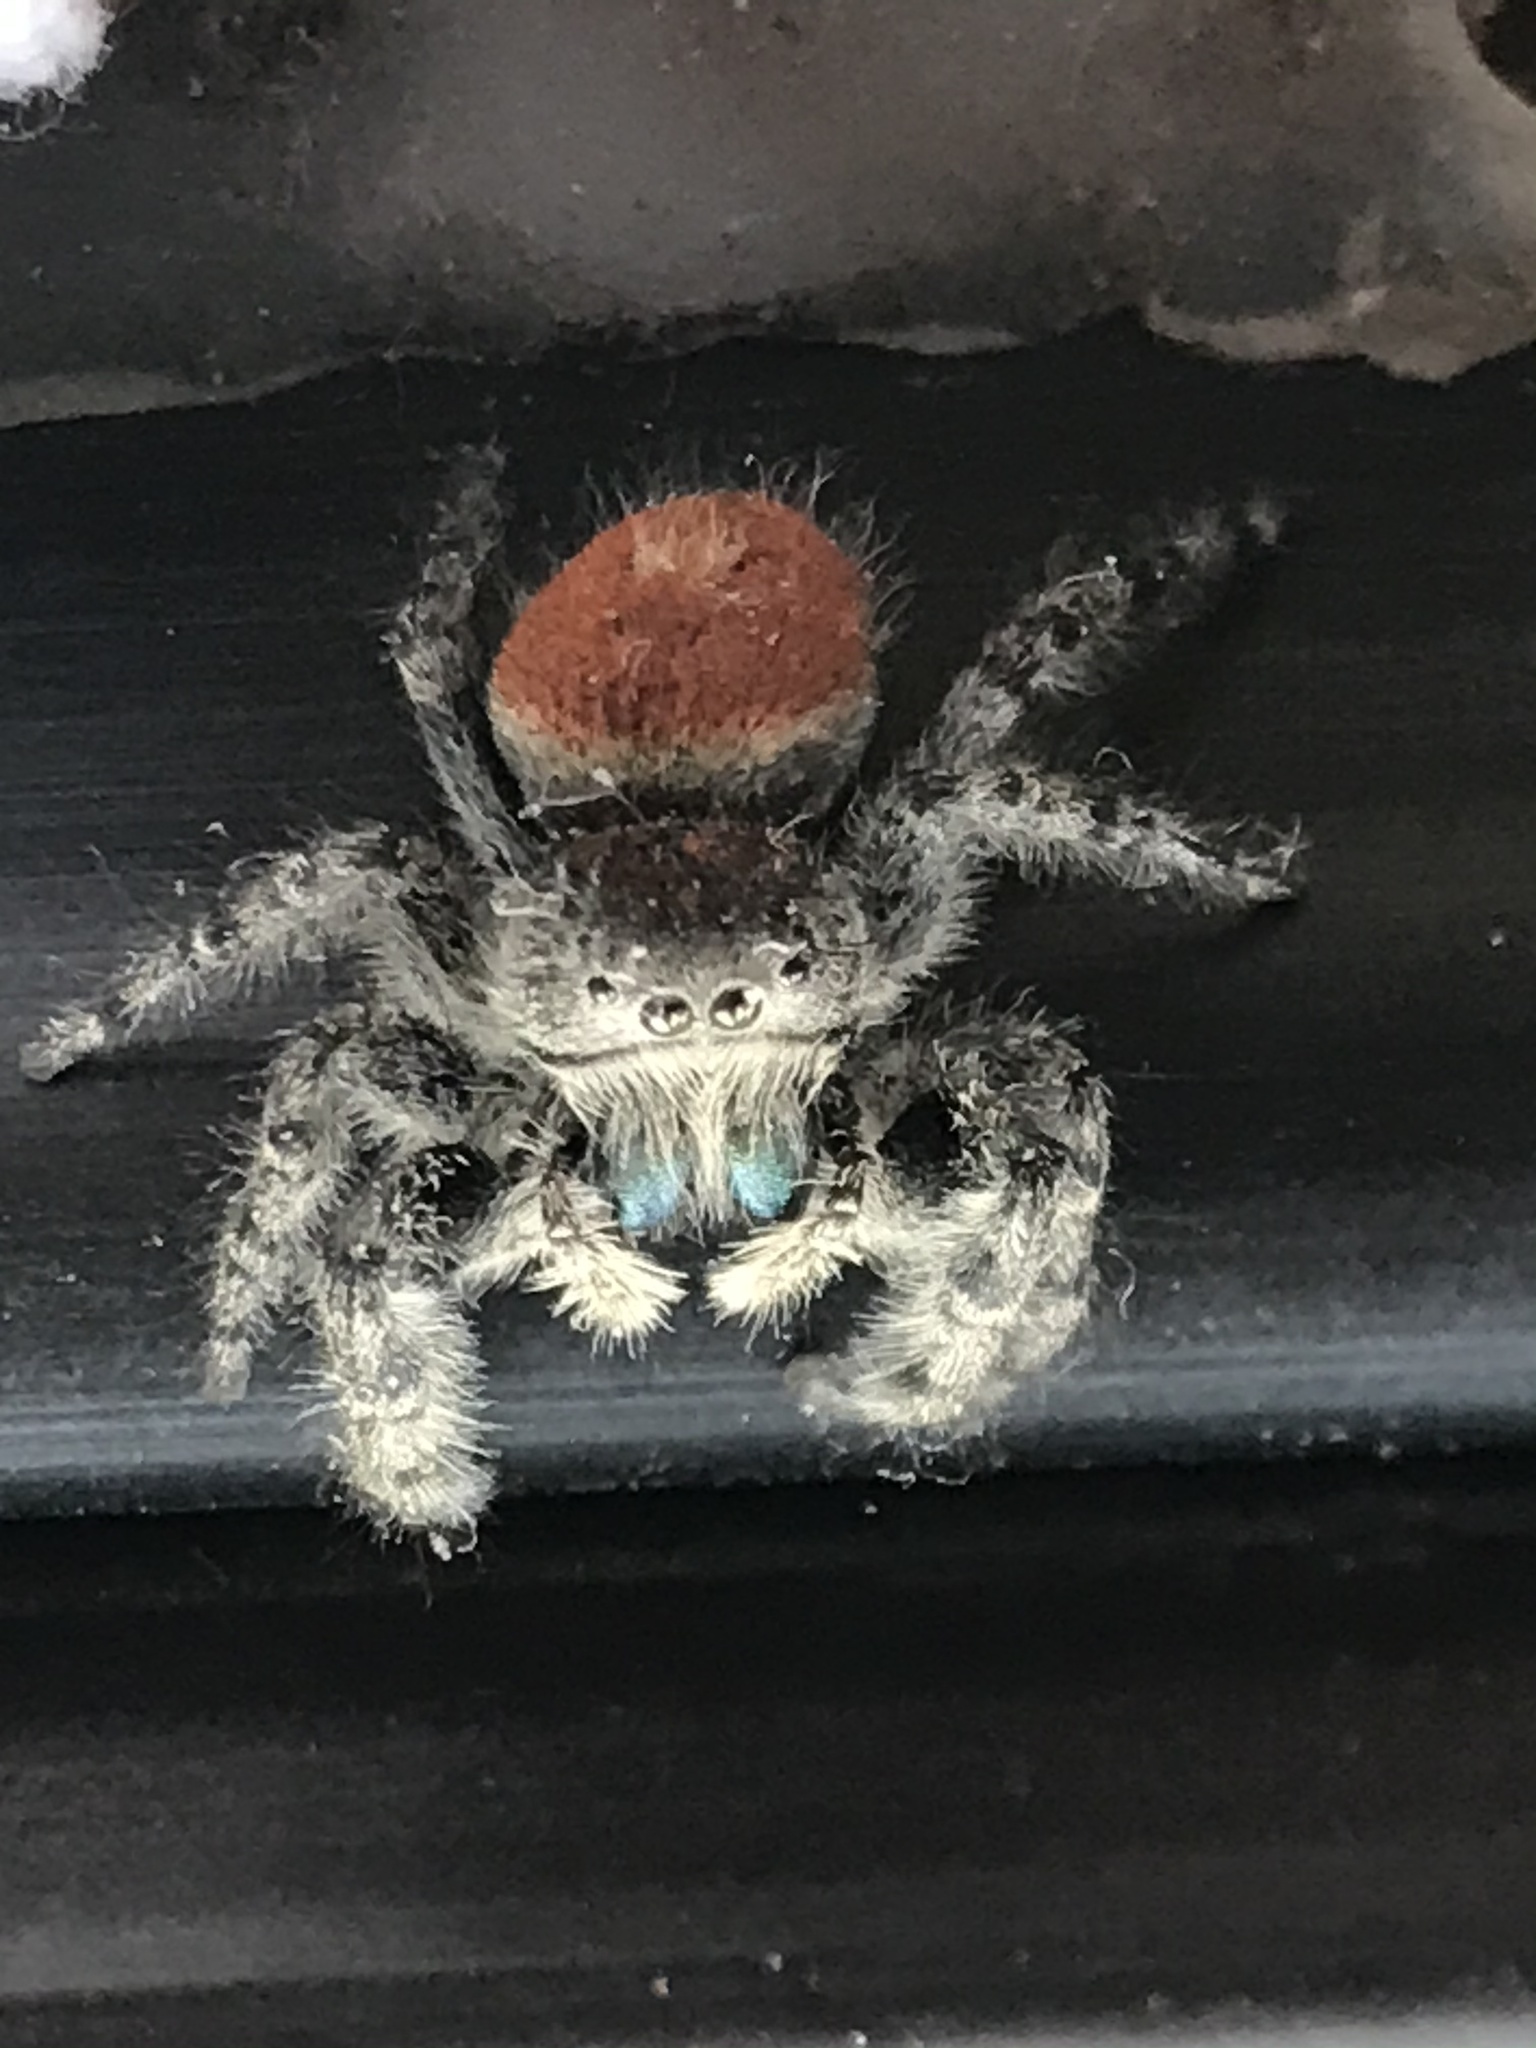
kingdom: Animalia
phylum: Arthropoda
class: Arachnida
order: Araneae
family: Salticidae
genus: Phidippus
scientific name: Phidippus adumbratus
